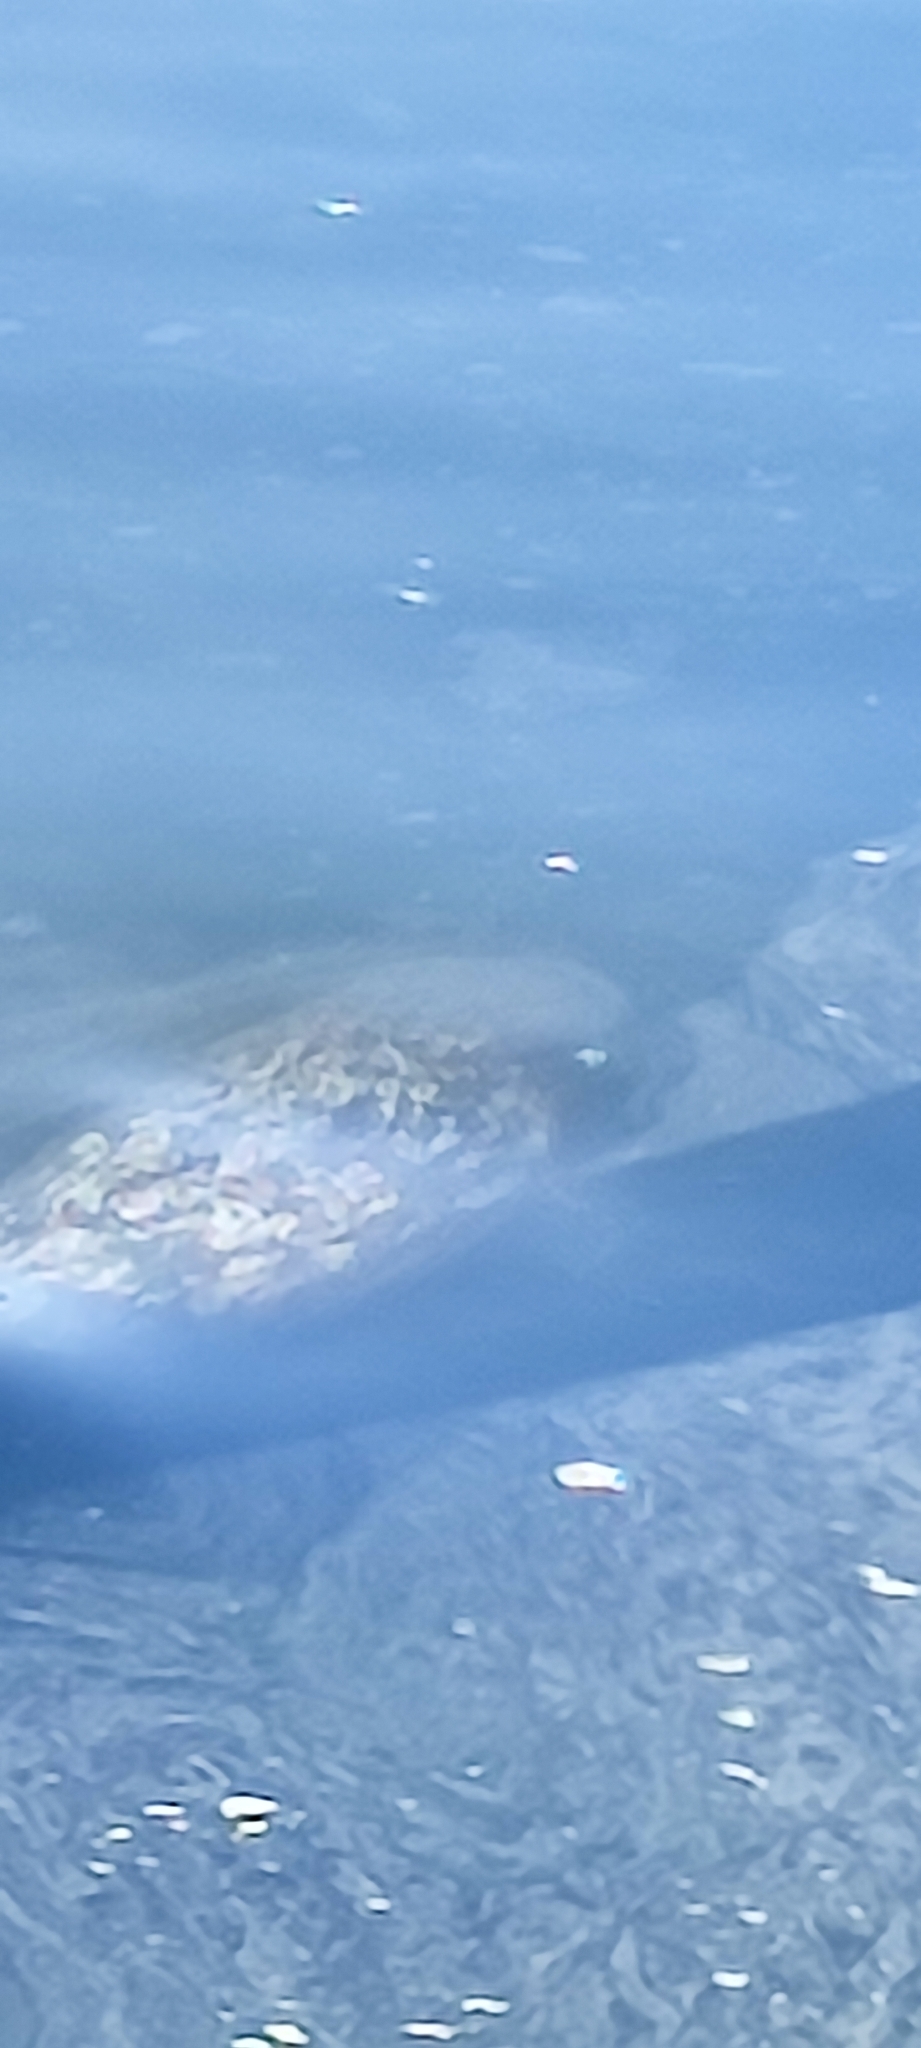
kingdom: Animalia
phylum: Chordata
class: Mammalia
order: Carnivora
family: Phocidae
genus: Phoca
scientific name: Phoca vitulina
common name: Harbor seal
